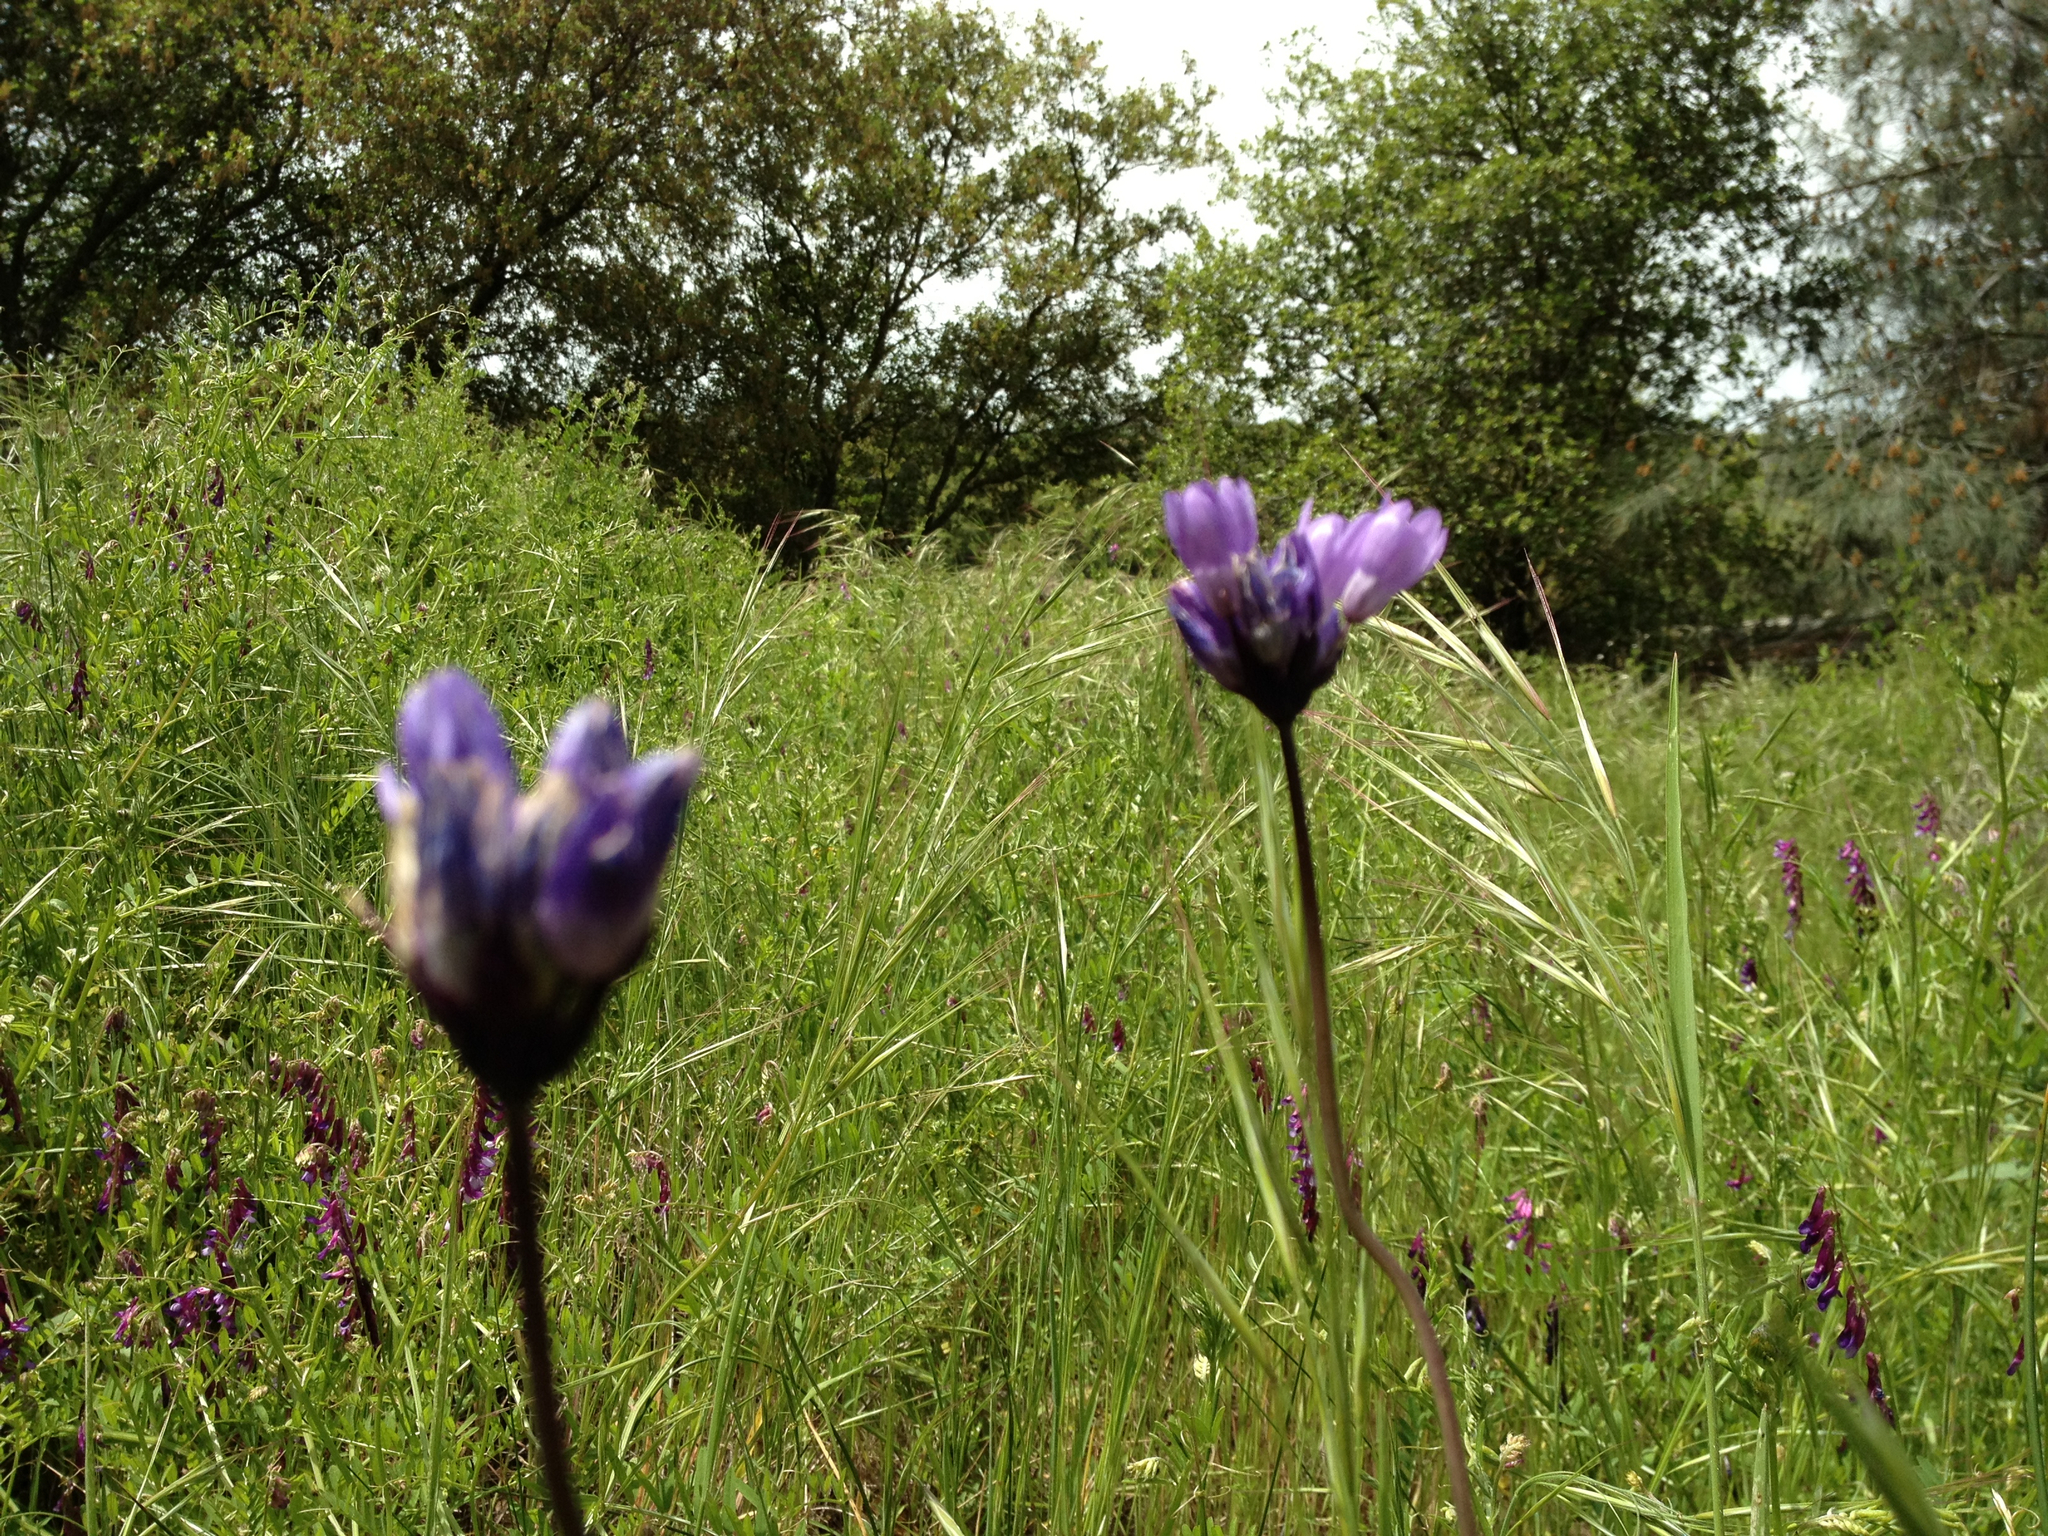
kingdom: Plantae
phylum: Tracheophyta
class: Liliopsida
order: Asparagales
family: Asparagaceae
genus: Dipterostemon
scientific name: Dipterostemon capitatus
